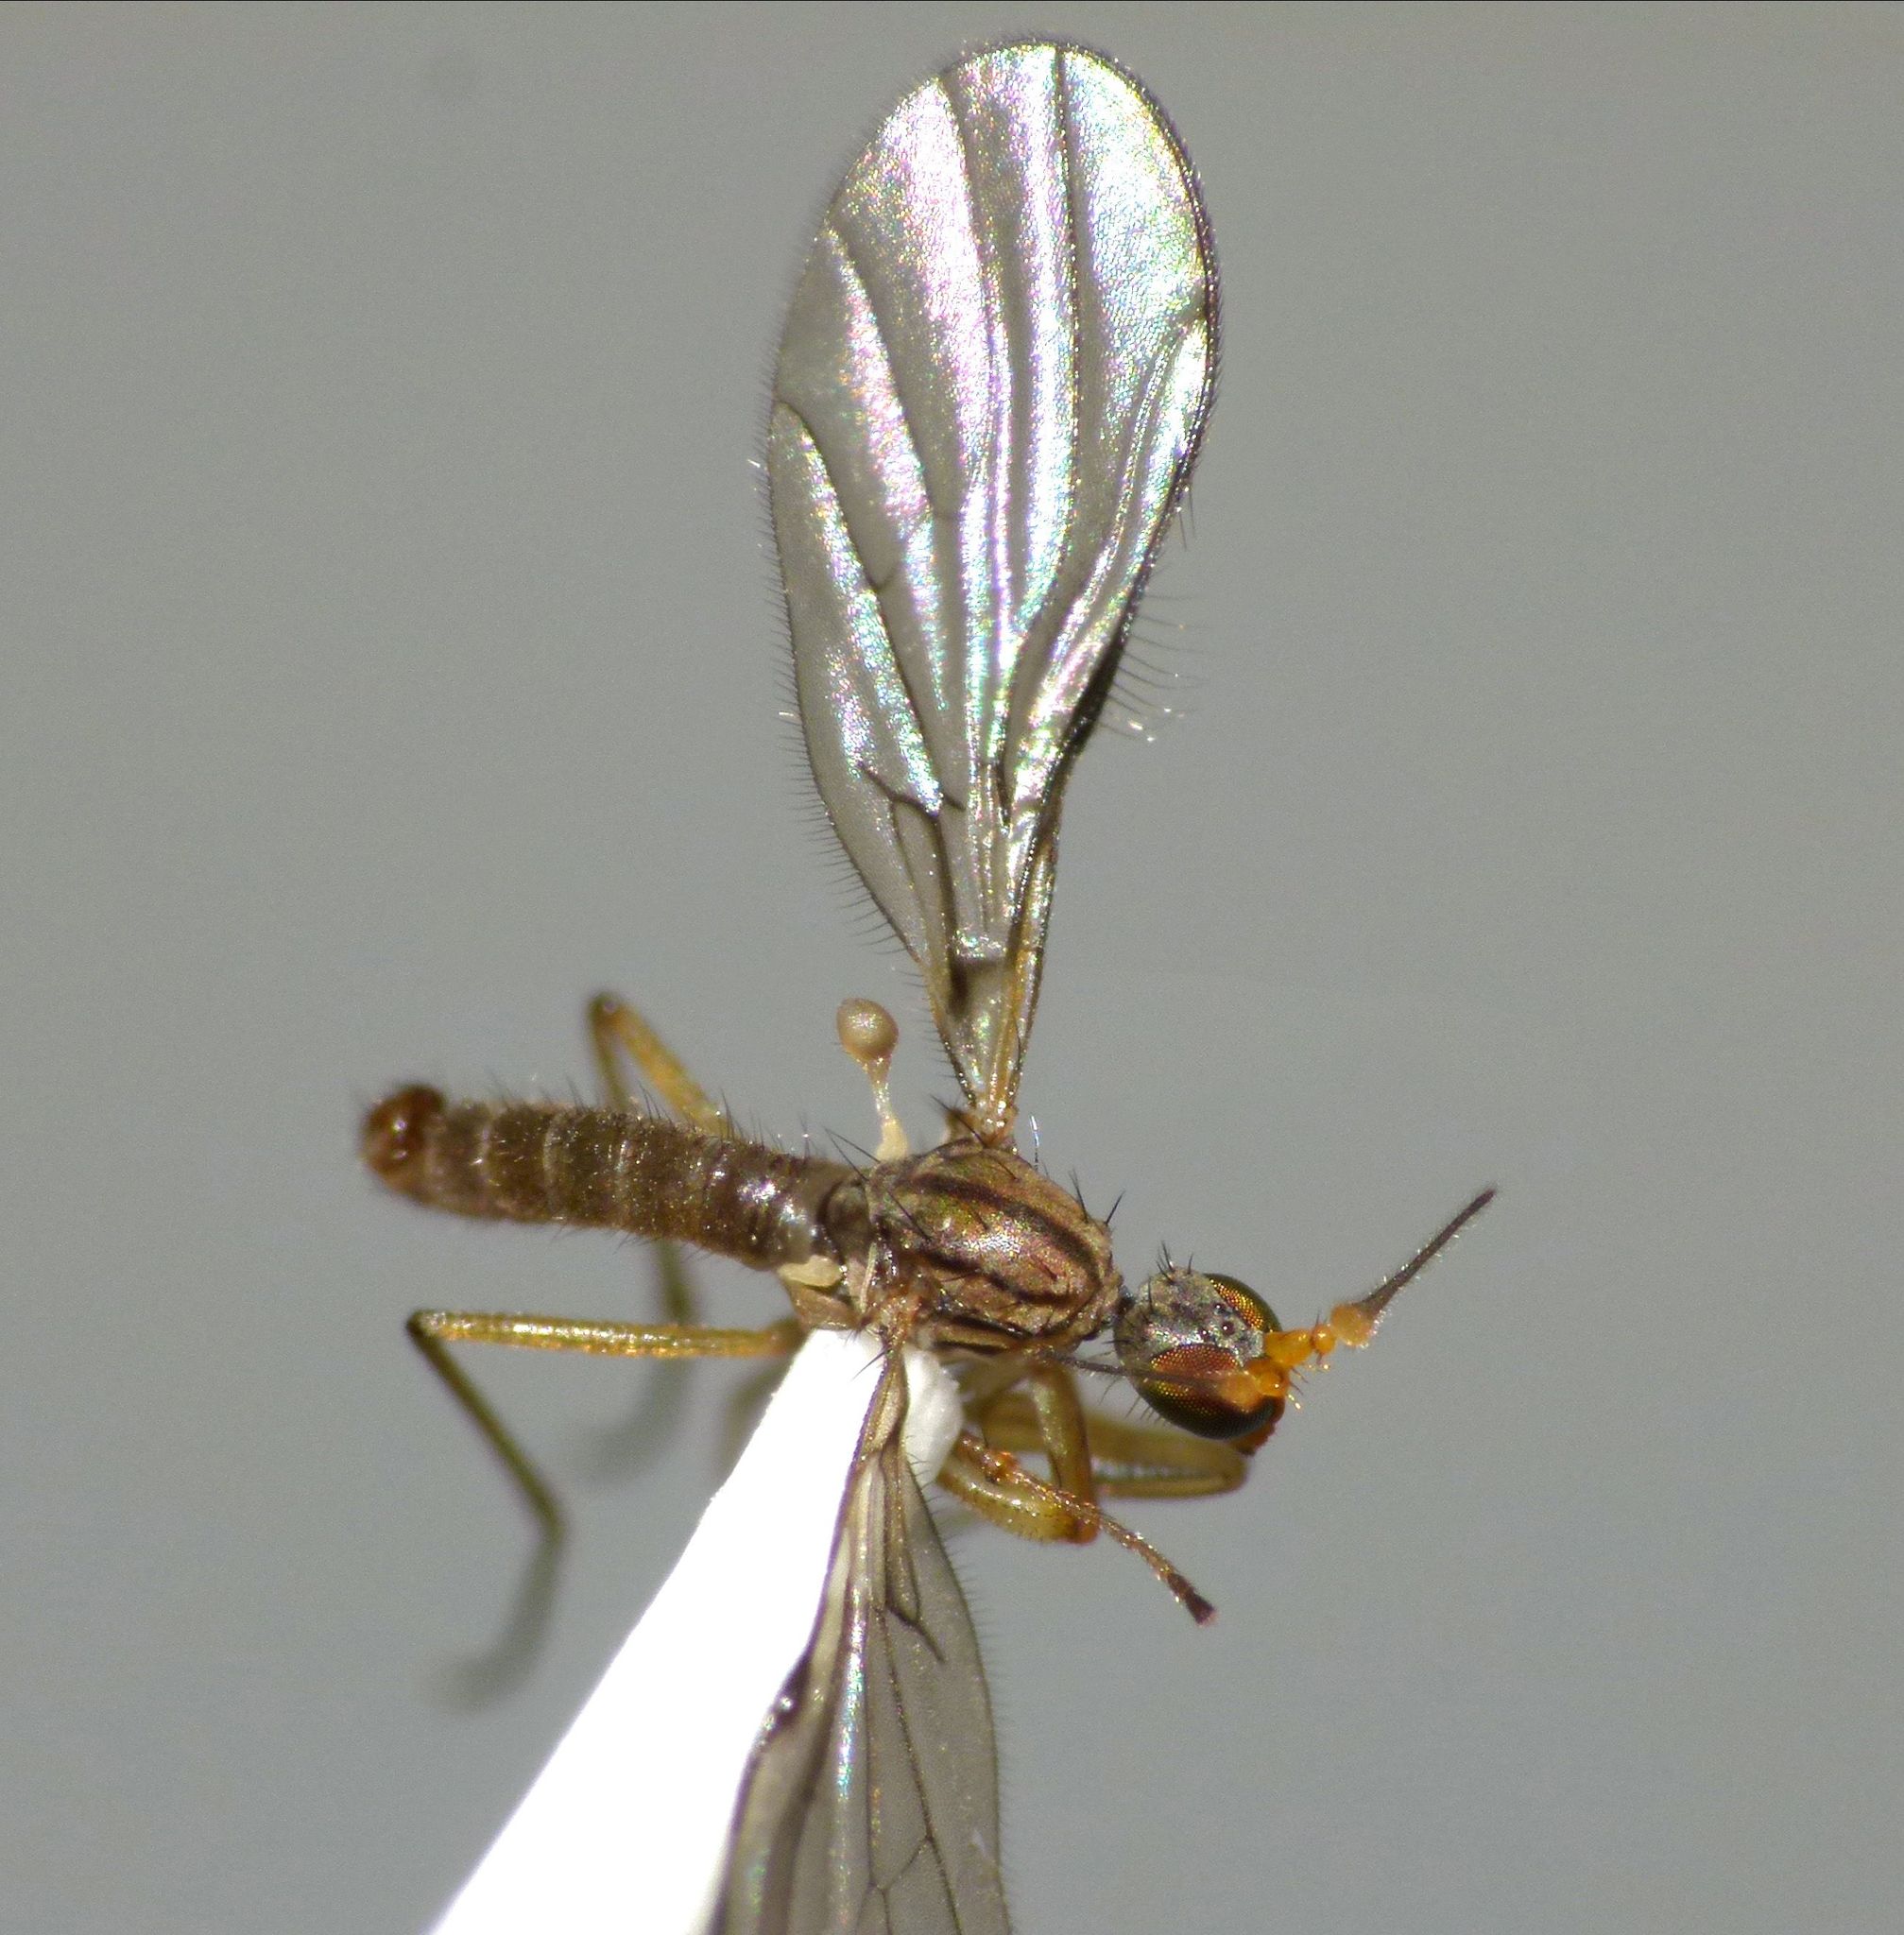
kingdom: Animalia
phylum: Arthropoda
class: Insecta
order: Diptera
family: Empididae
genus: Chelipoda
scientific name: Chelipoda aritarita
